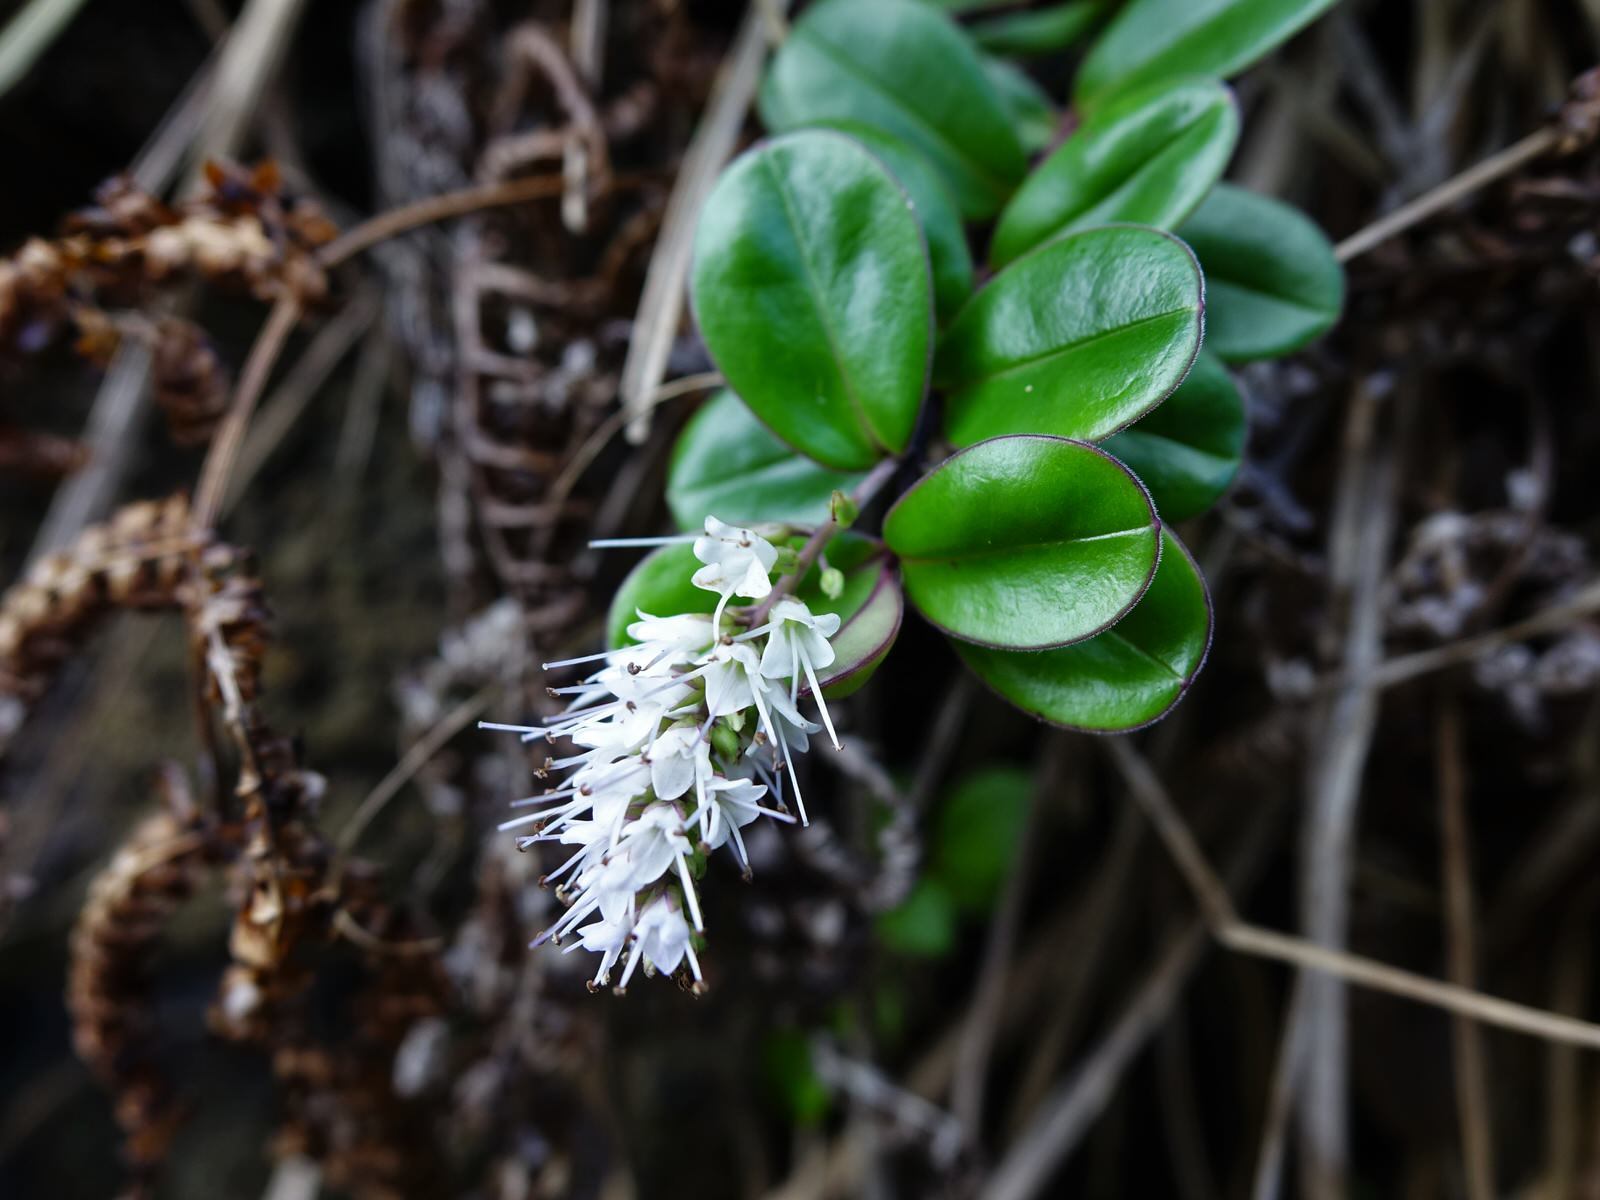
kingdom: Plantae
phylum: Tracheophyta
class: Magnoliopsida
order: Lamiales
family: Plantaginaceae
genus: Veronica
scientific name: Veronica obtusata
